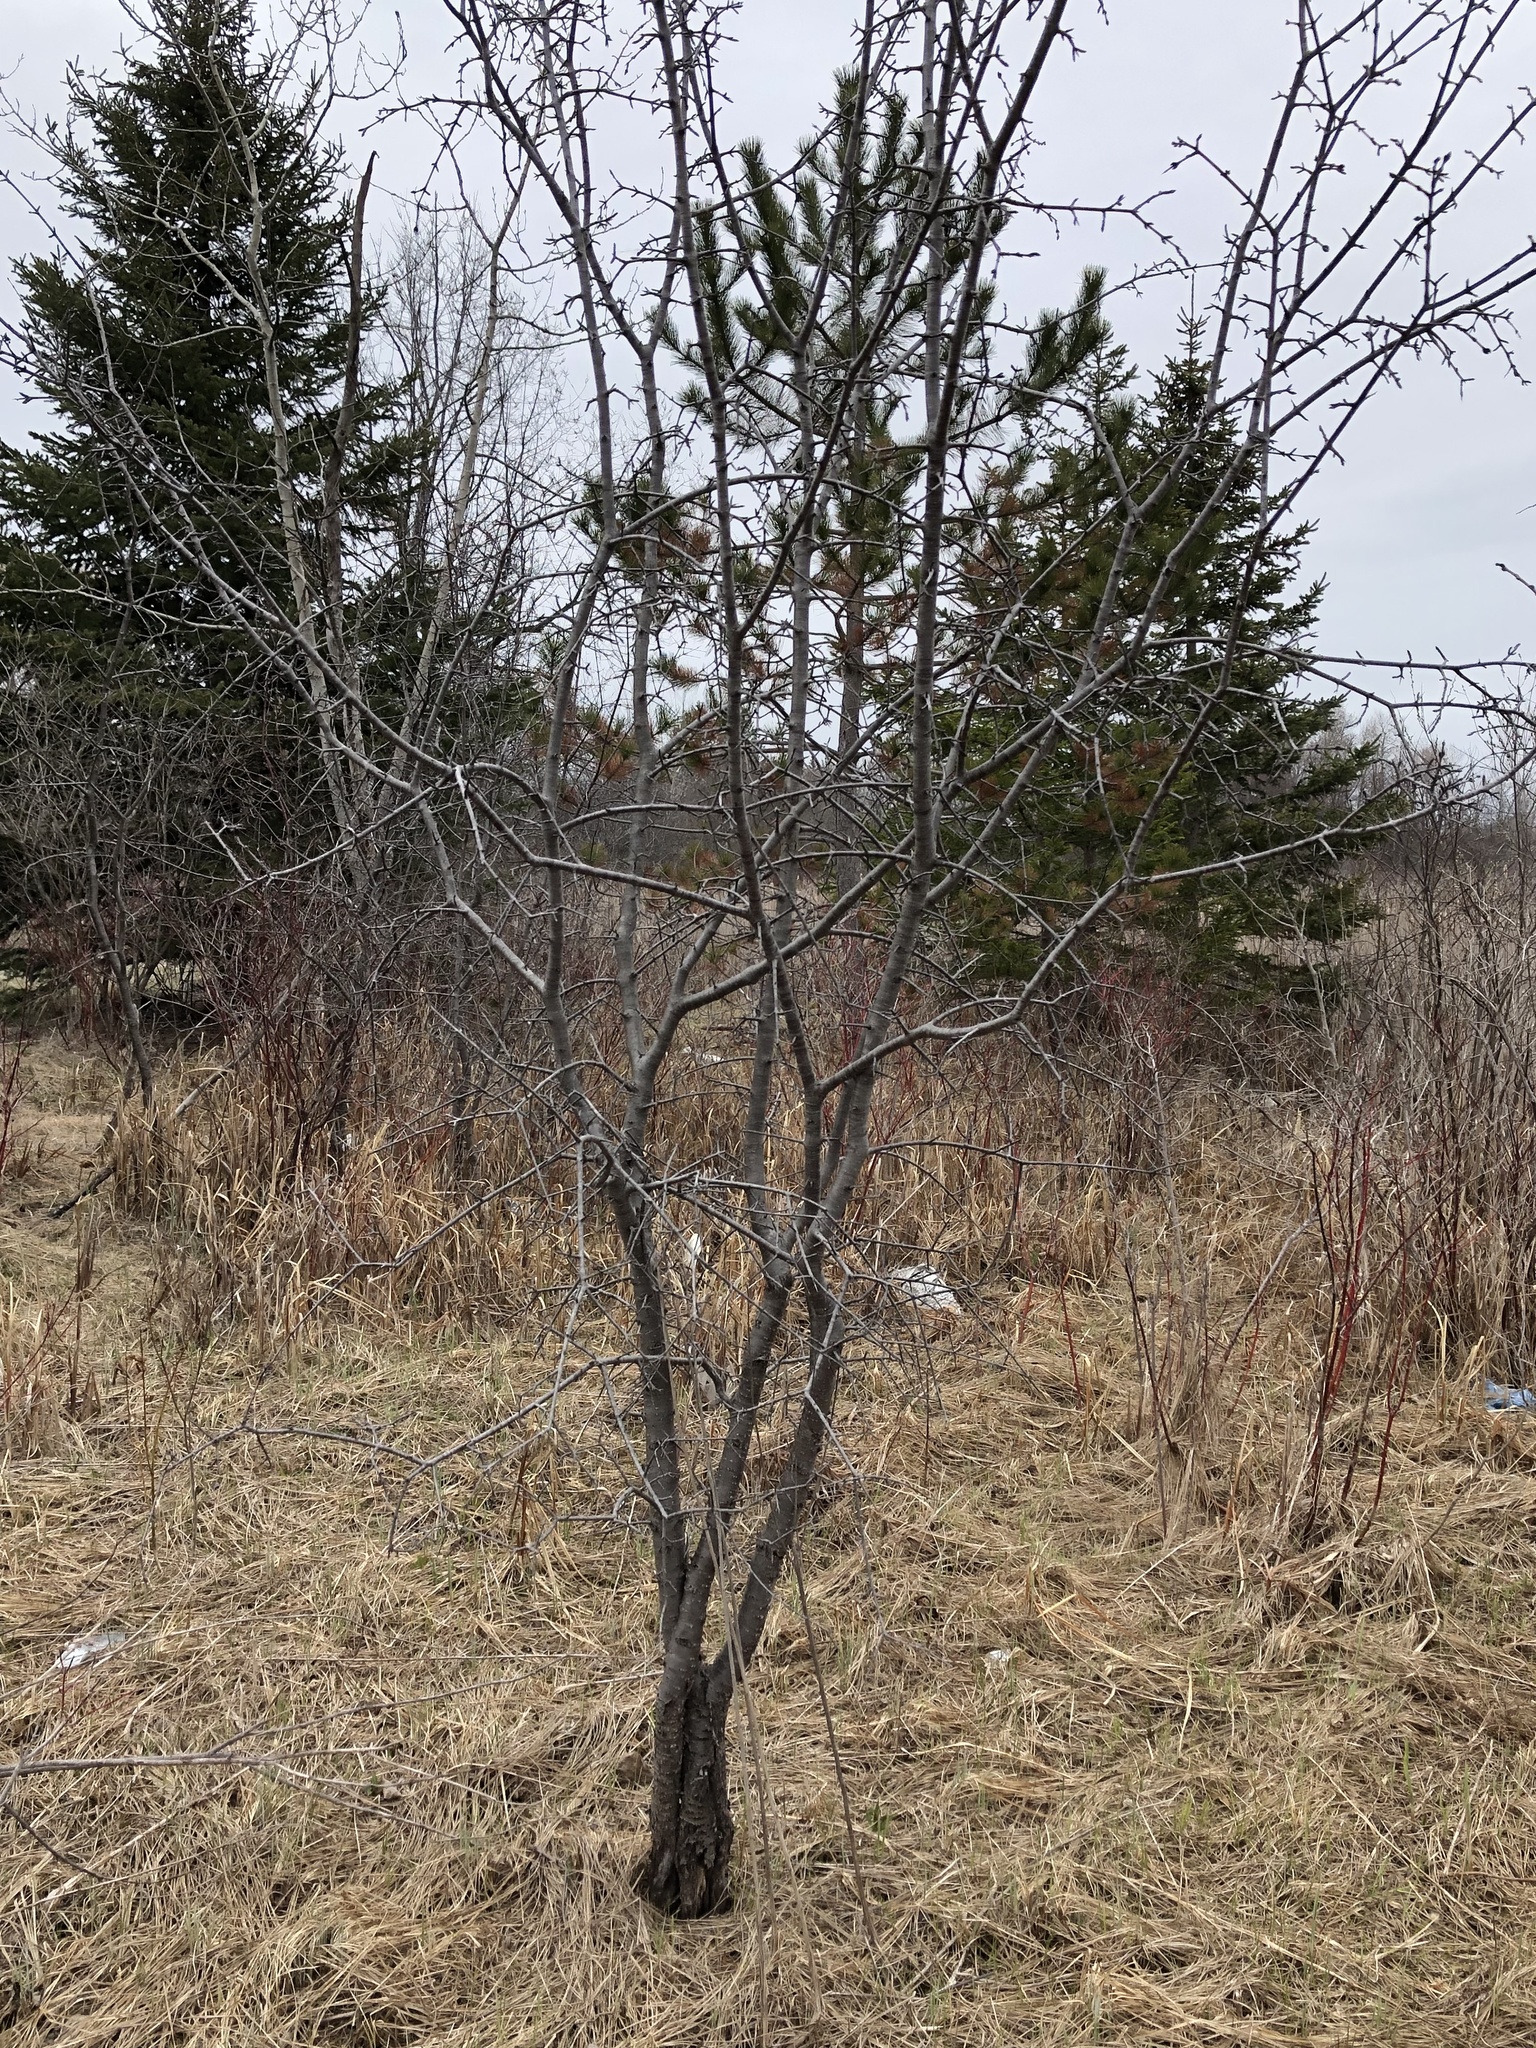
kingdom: Plantae
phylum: Tracheophyta
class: Magnoliopsida
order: Rosales
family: Rhamnaceae
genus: Rhamnus
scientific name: Rhamnus cathartica
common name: Common buckthorn
